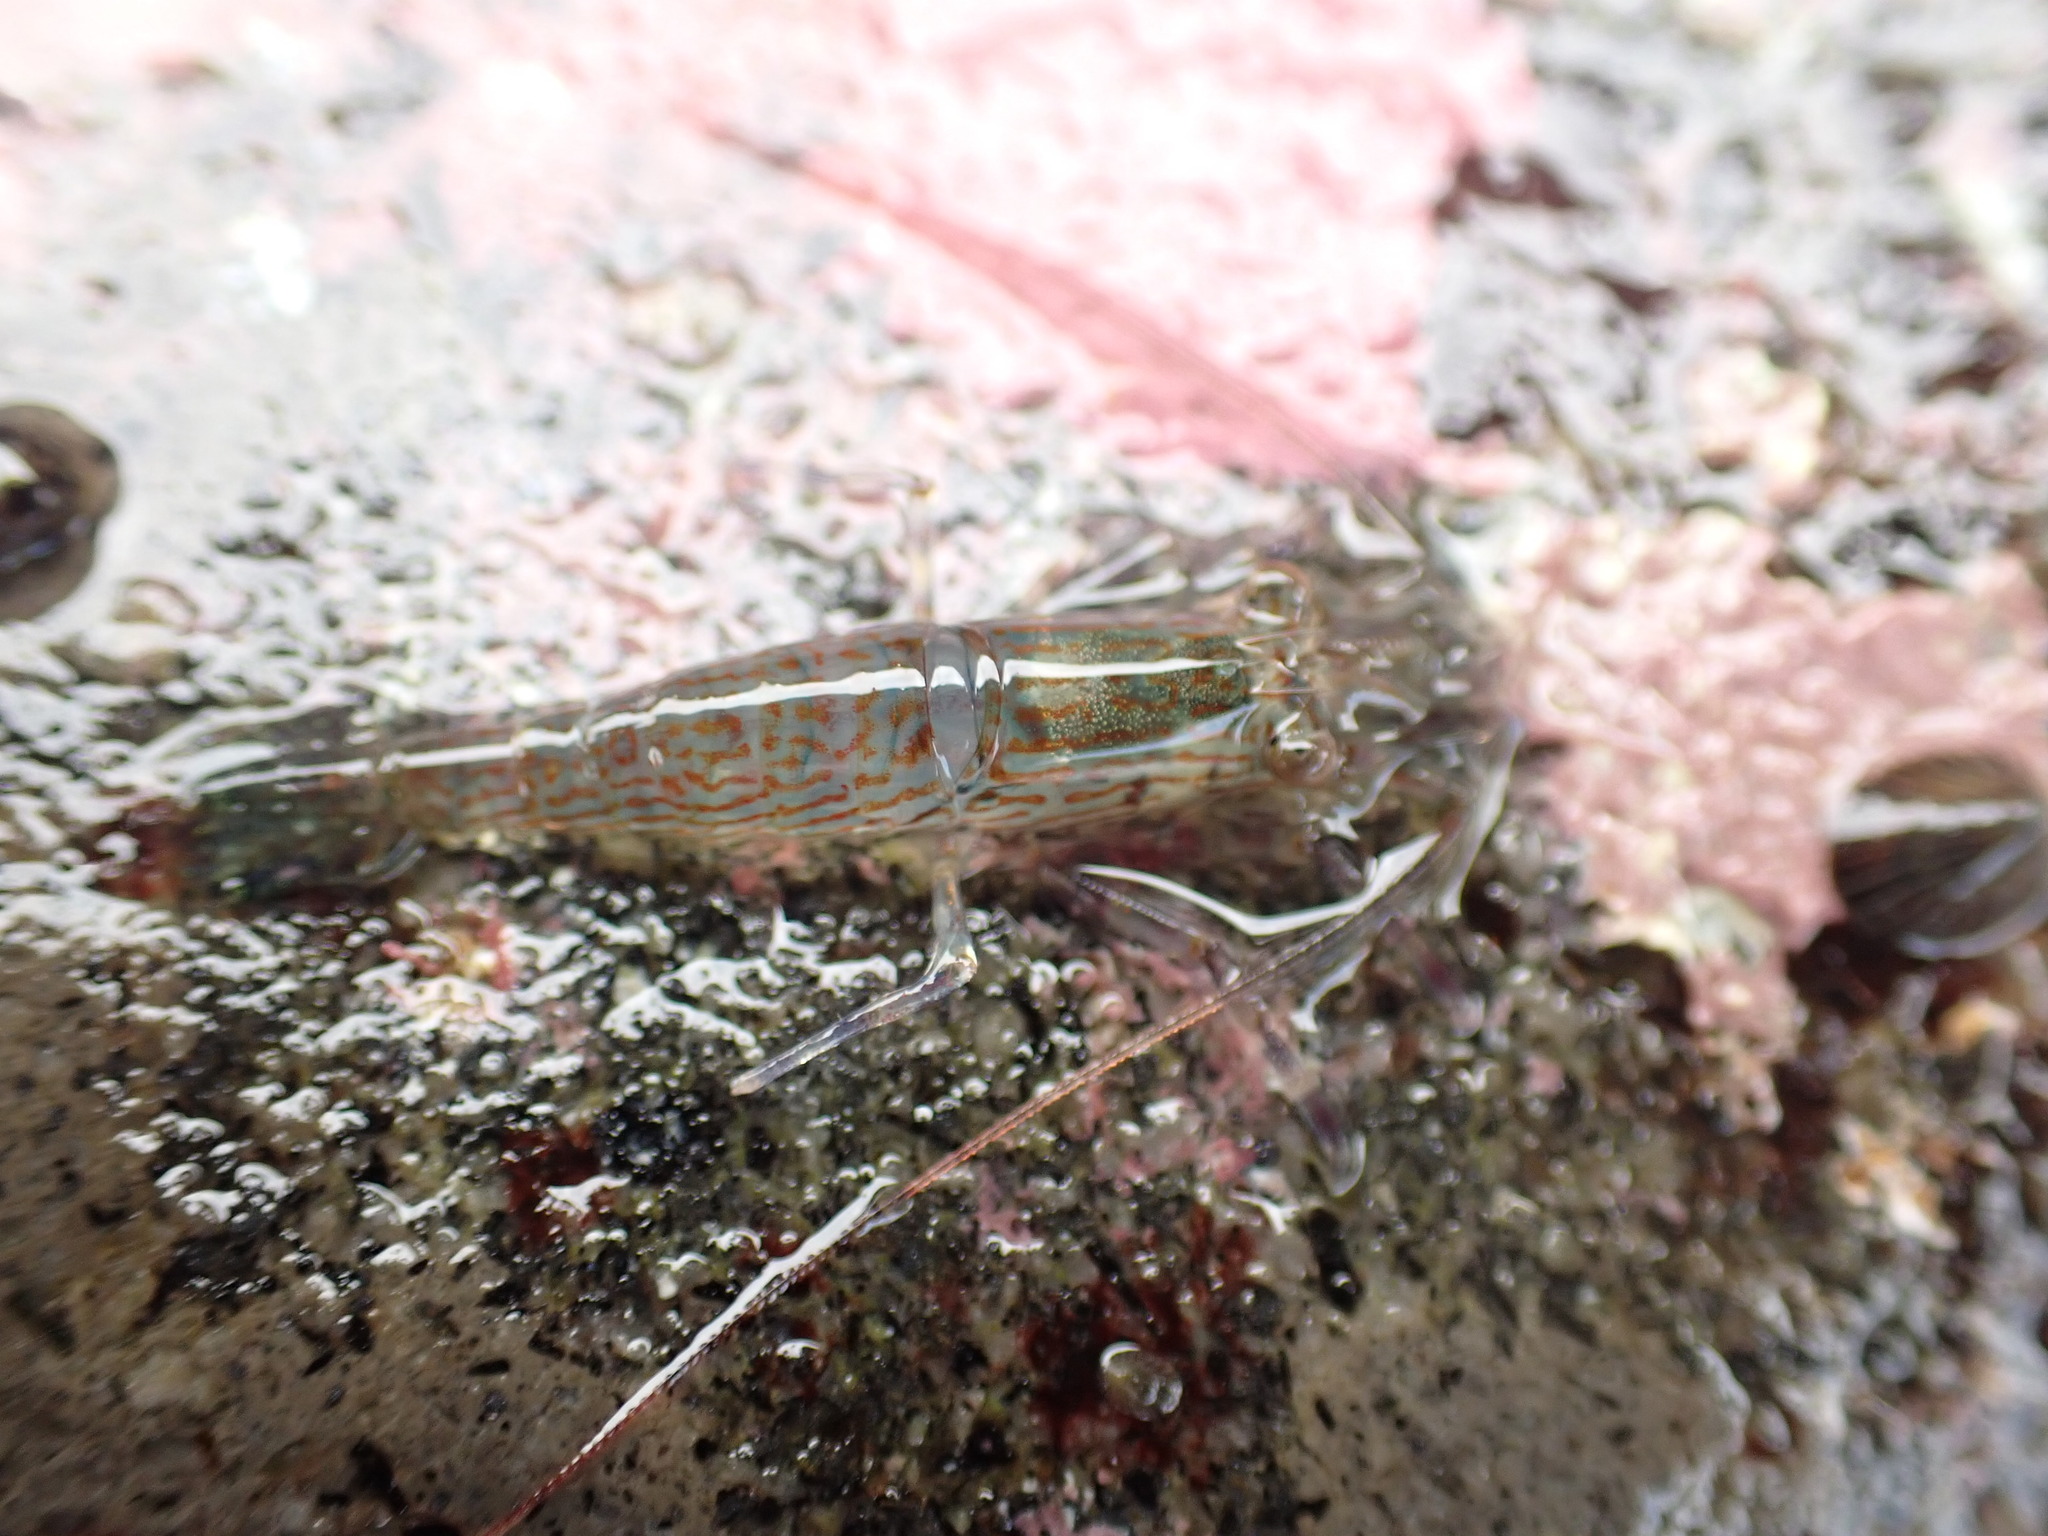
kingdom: Animalia
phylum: Arthropoda
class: Malacostraca
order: Decapoda
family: Hippolytidae
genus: Alope
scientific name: Alope spinifrons
